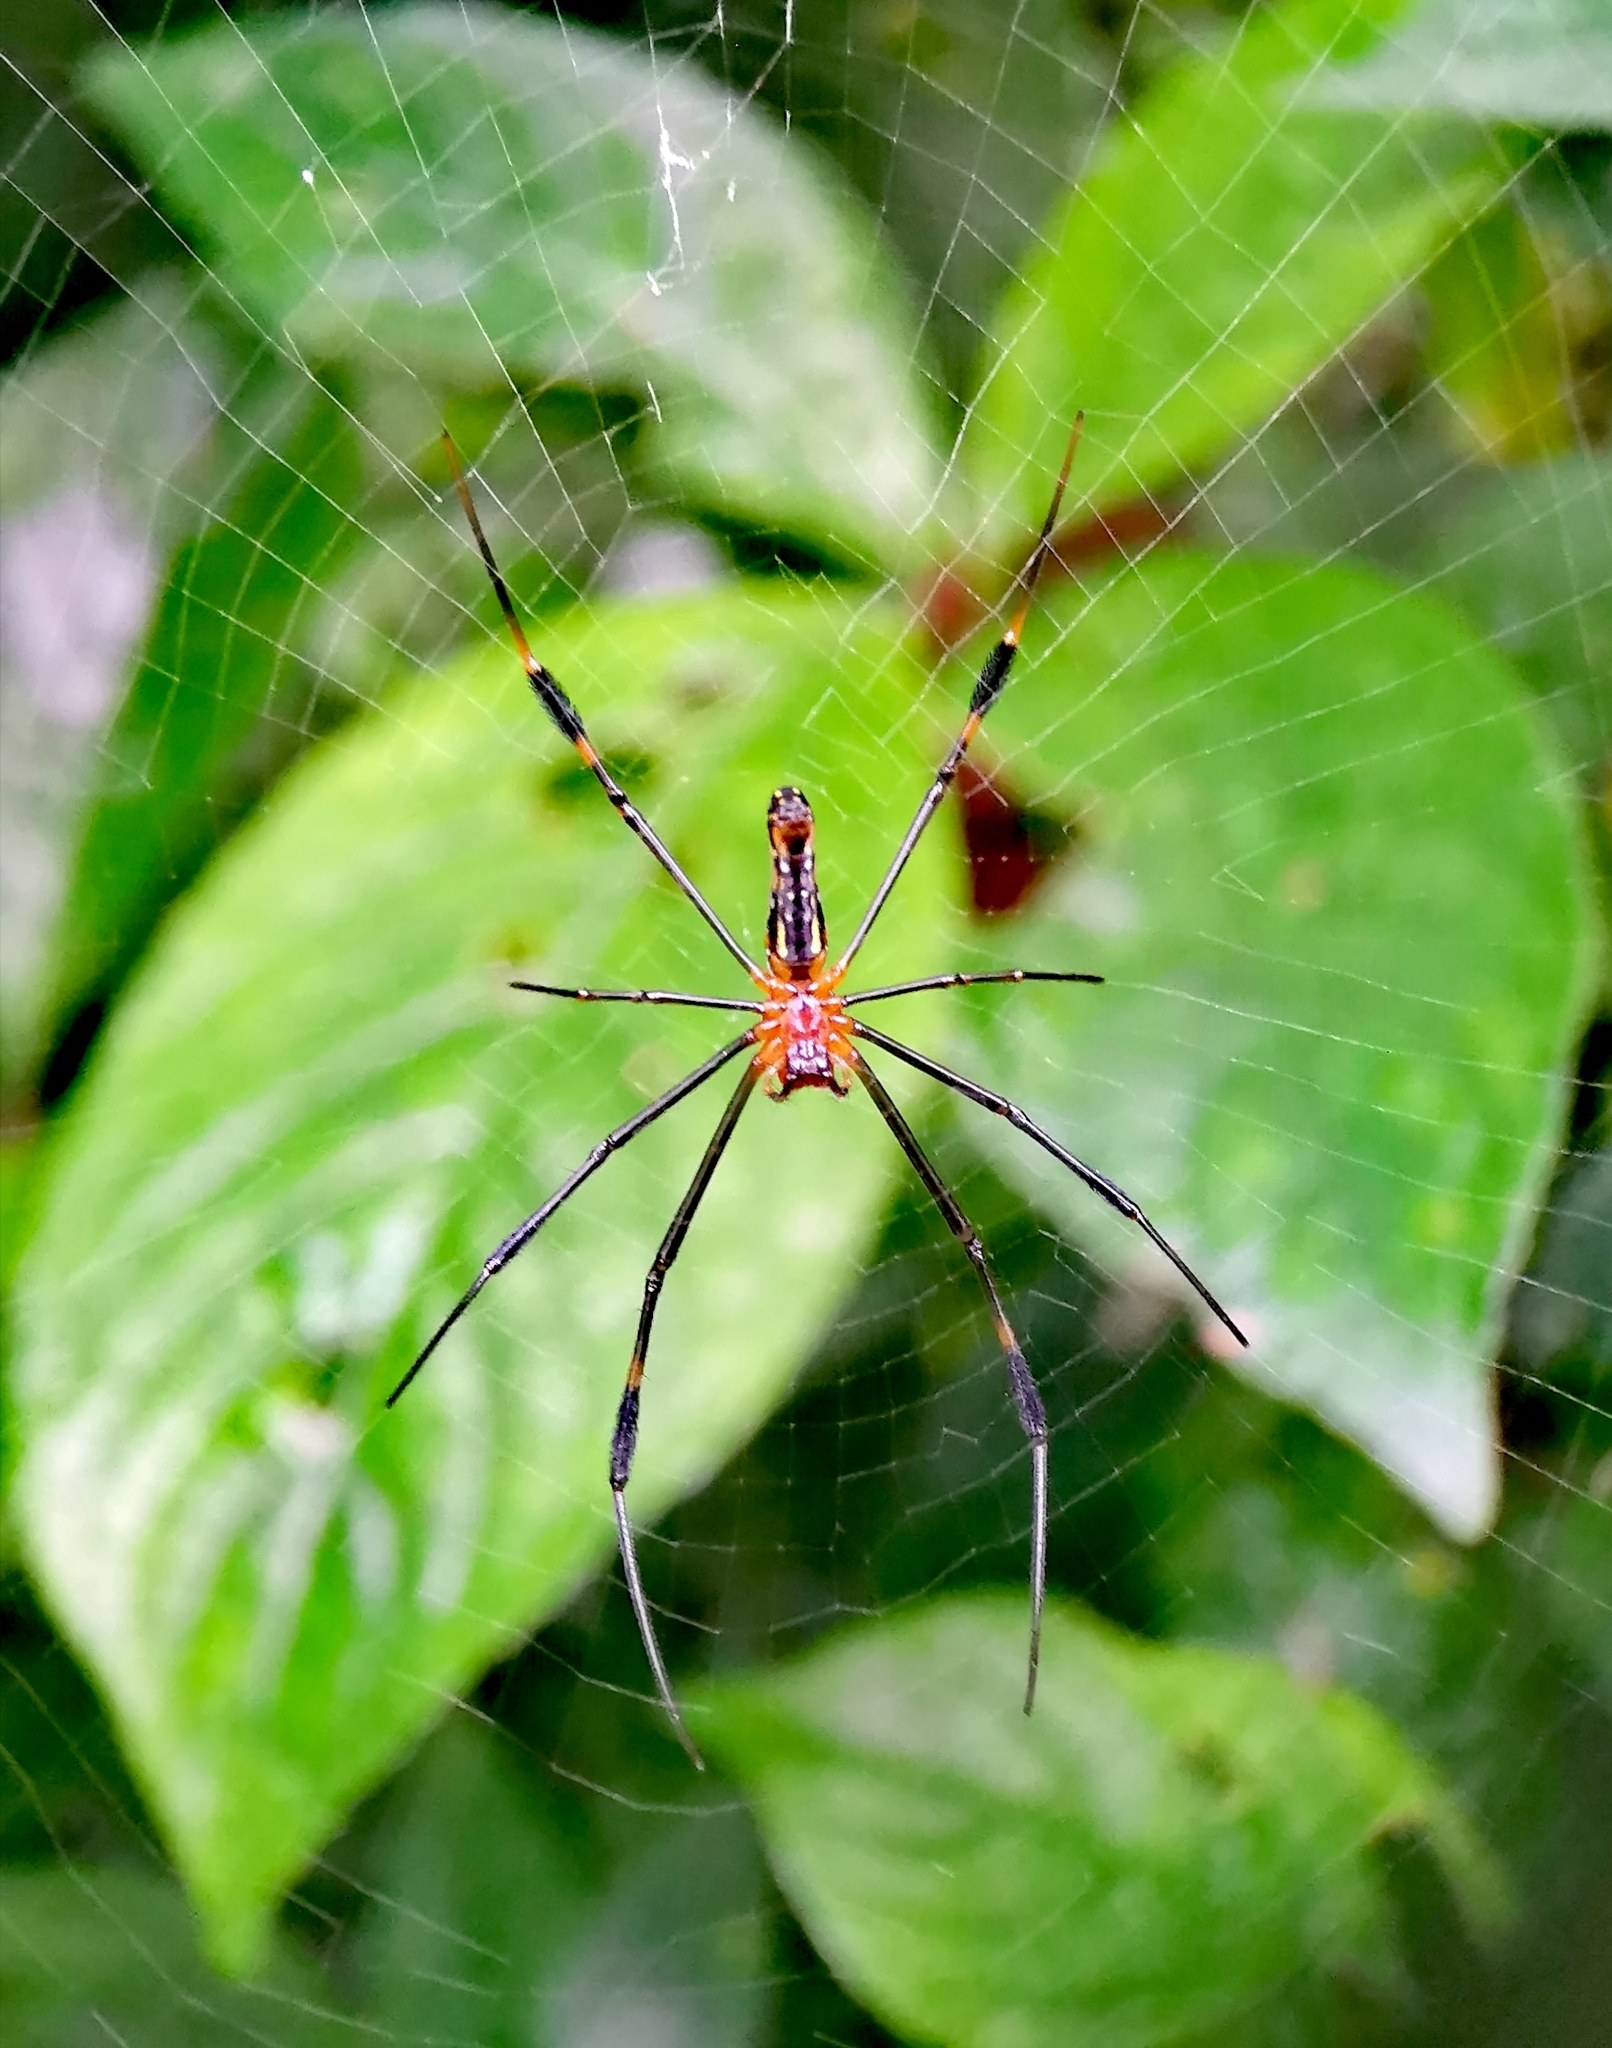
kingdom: Animalia
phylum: Arthropoda
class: Arachnida
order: Araneae
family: Araneidae
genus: Nephila
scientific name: Nephila pilipes
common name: Giant golden orb weaver
